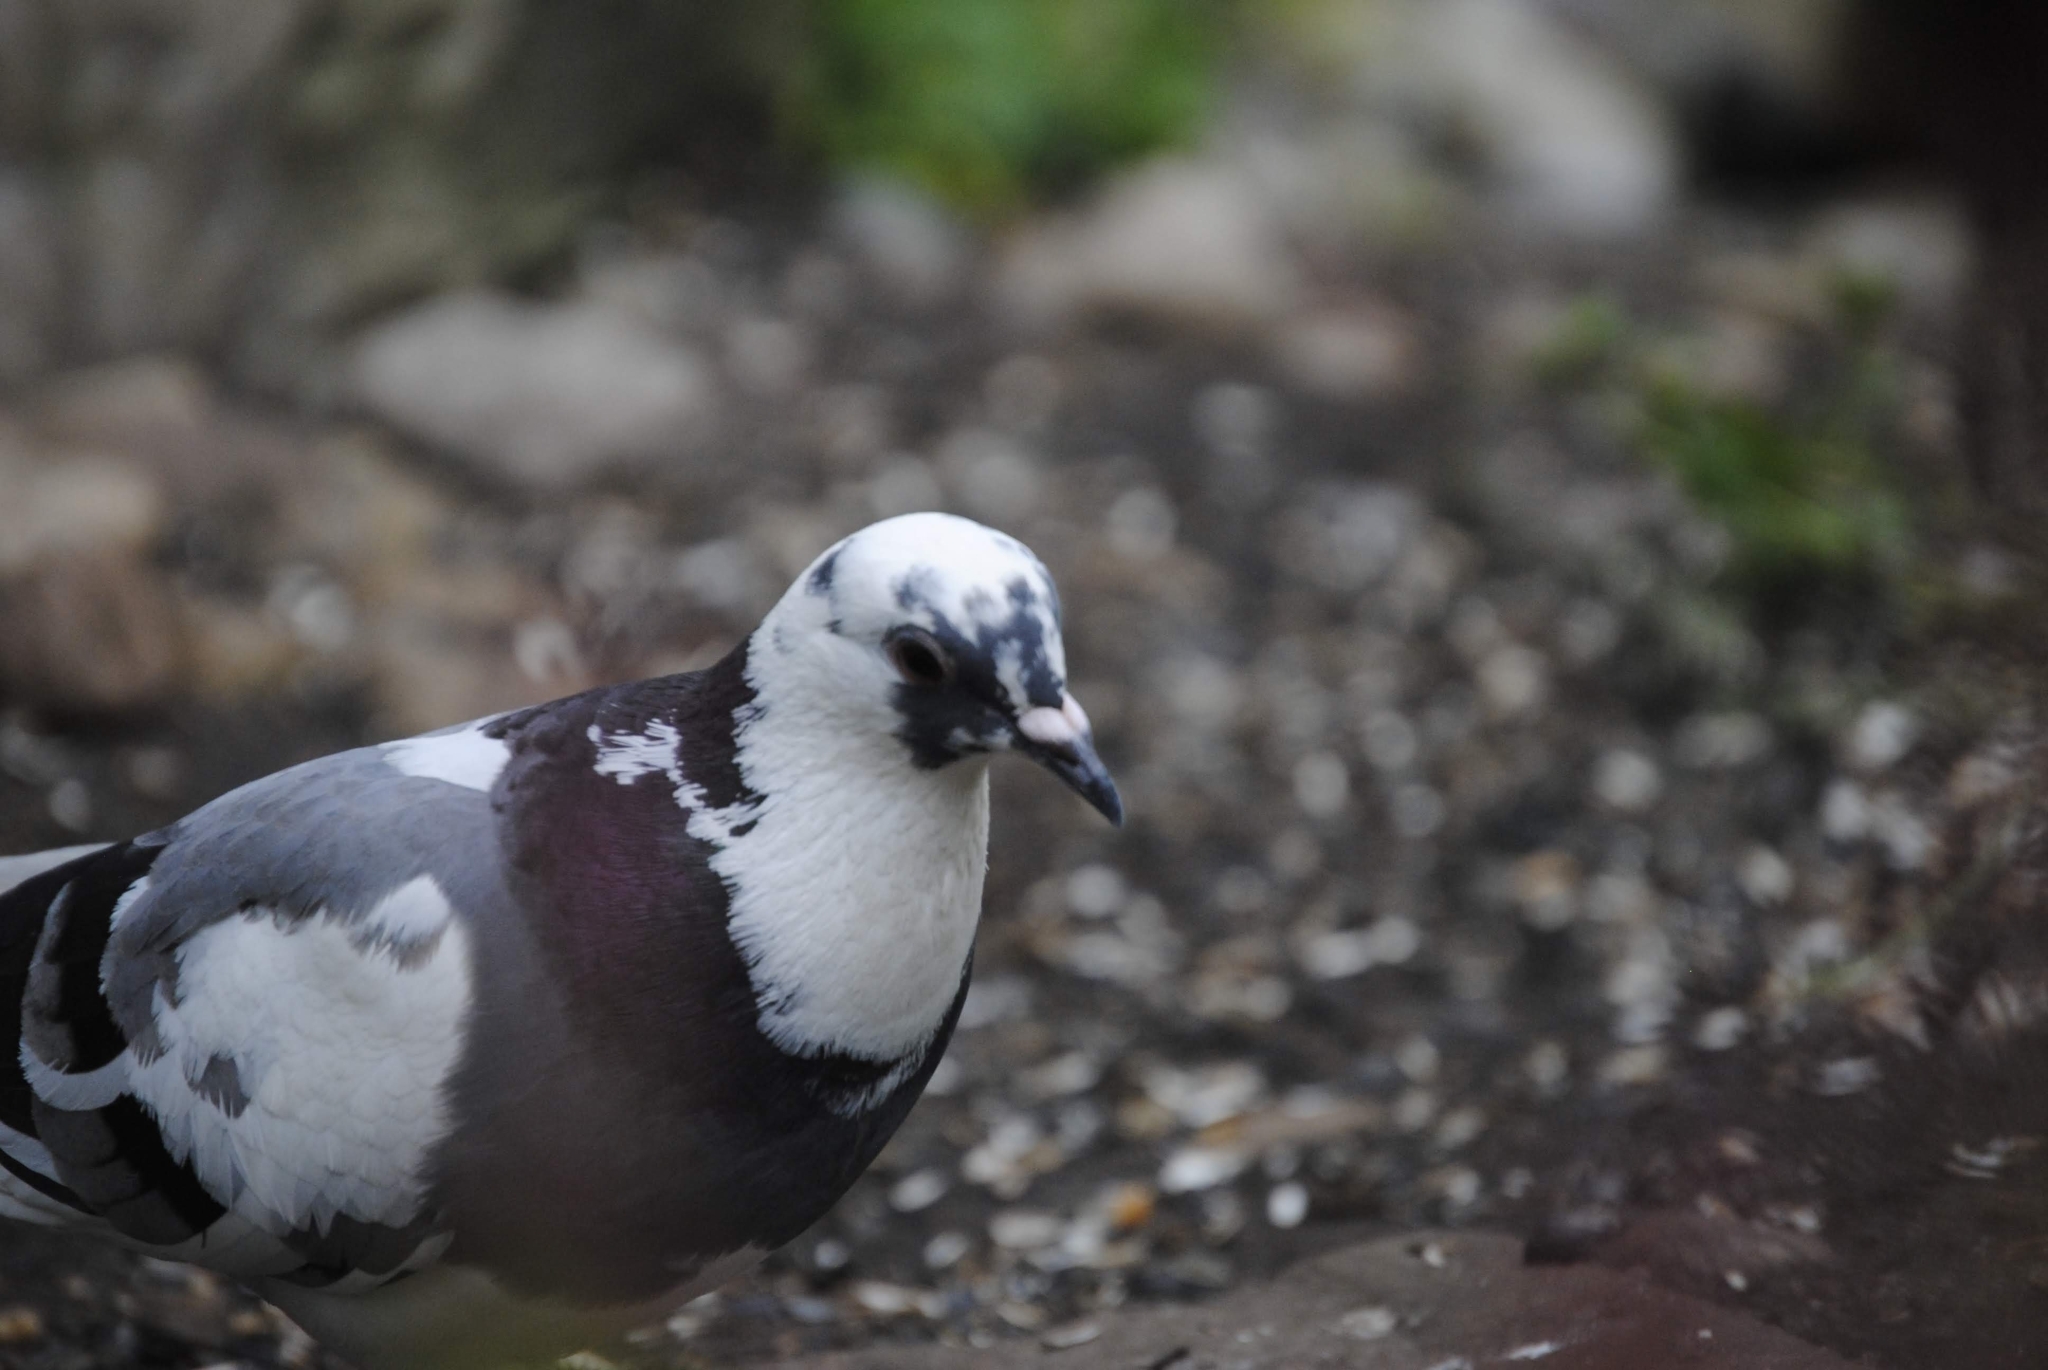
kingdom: Animalia
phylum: Chordata
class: Aves
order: Columbiformes
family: Columbidae
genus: Columba
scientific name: Columba livia
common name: Rock pigeon
